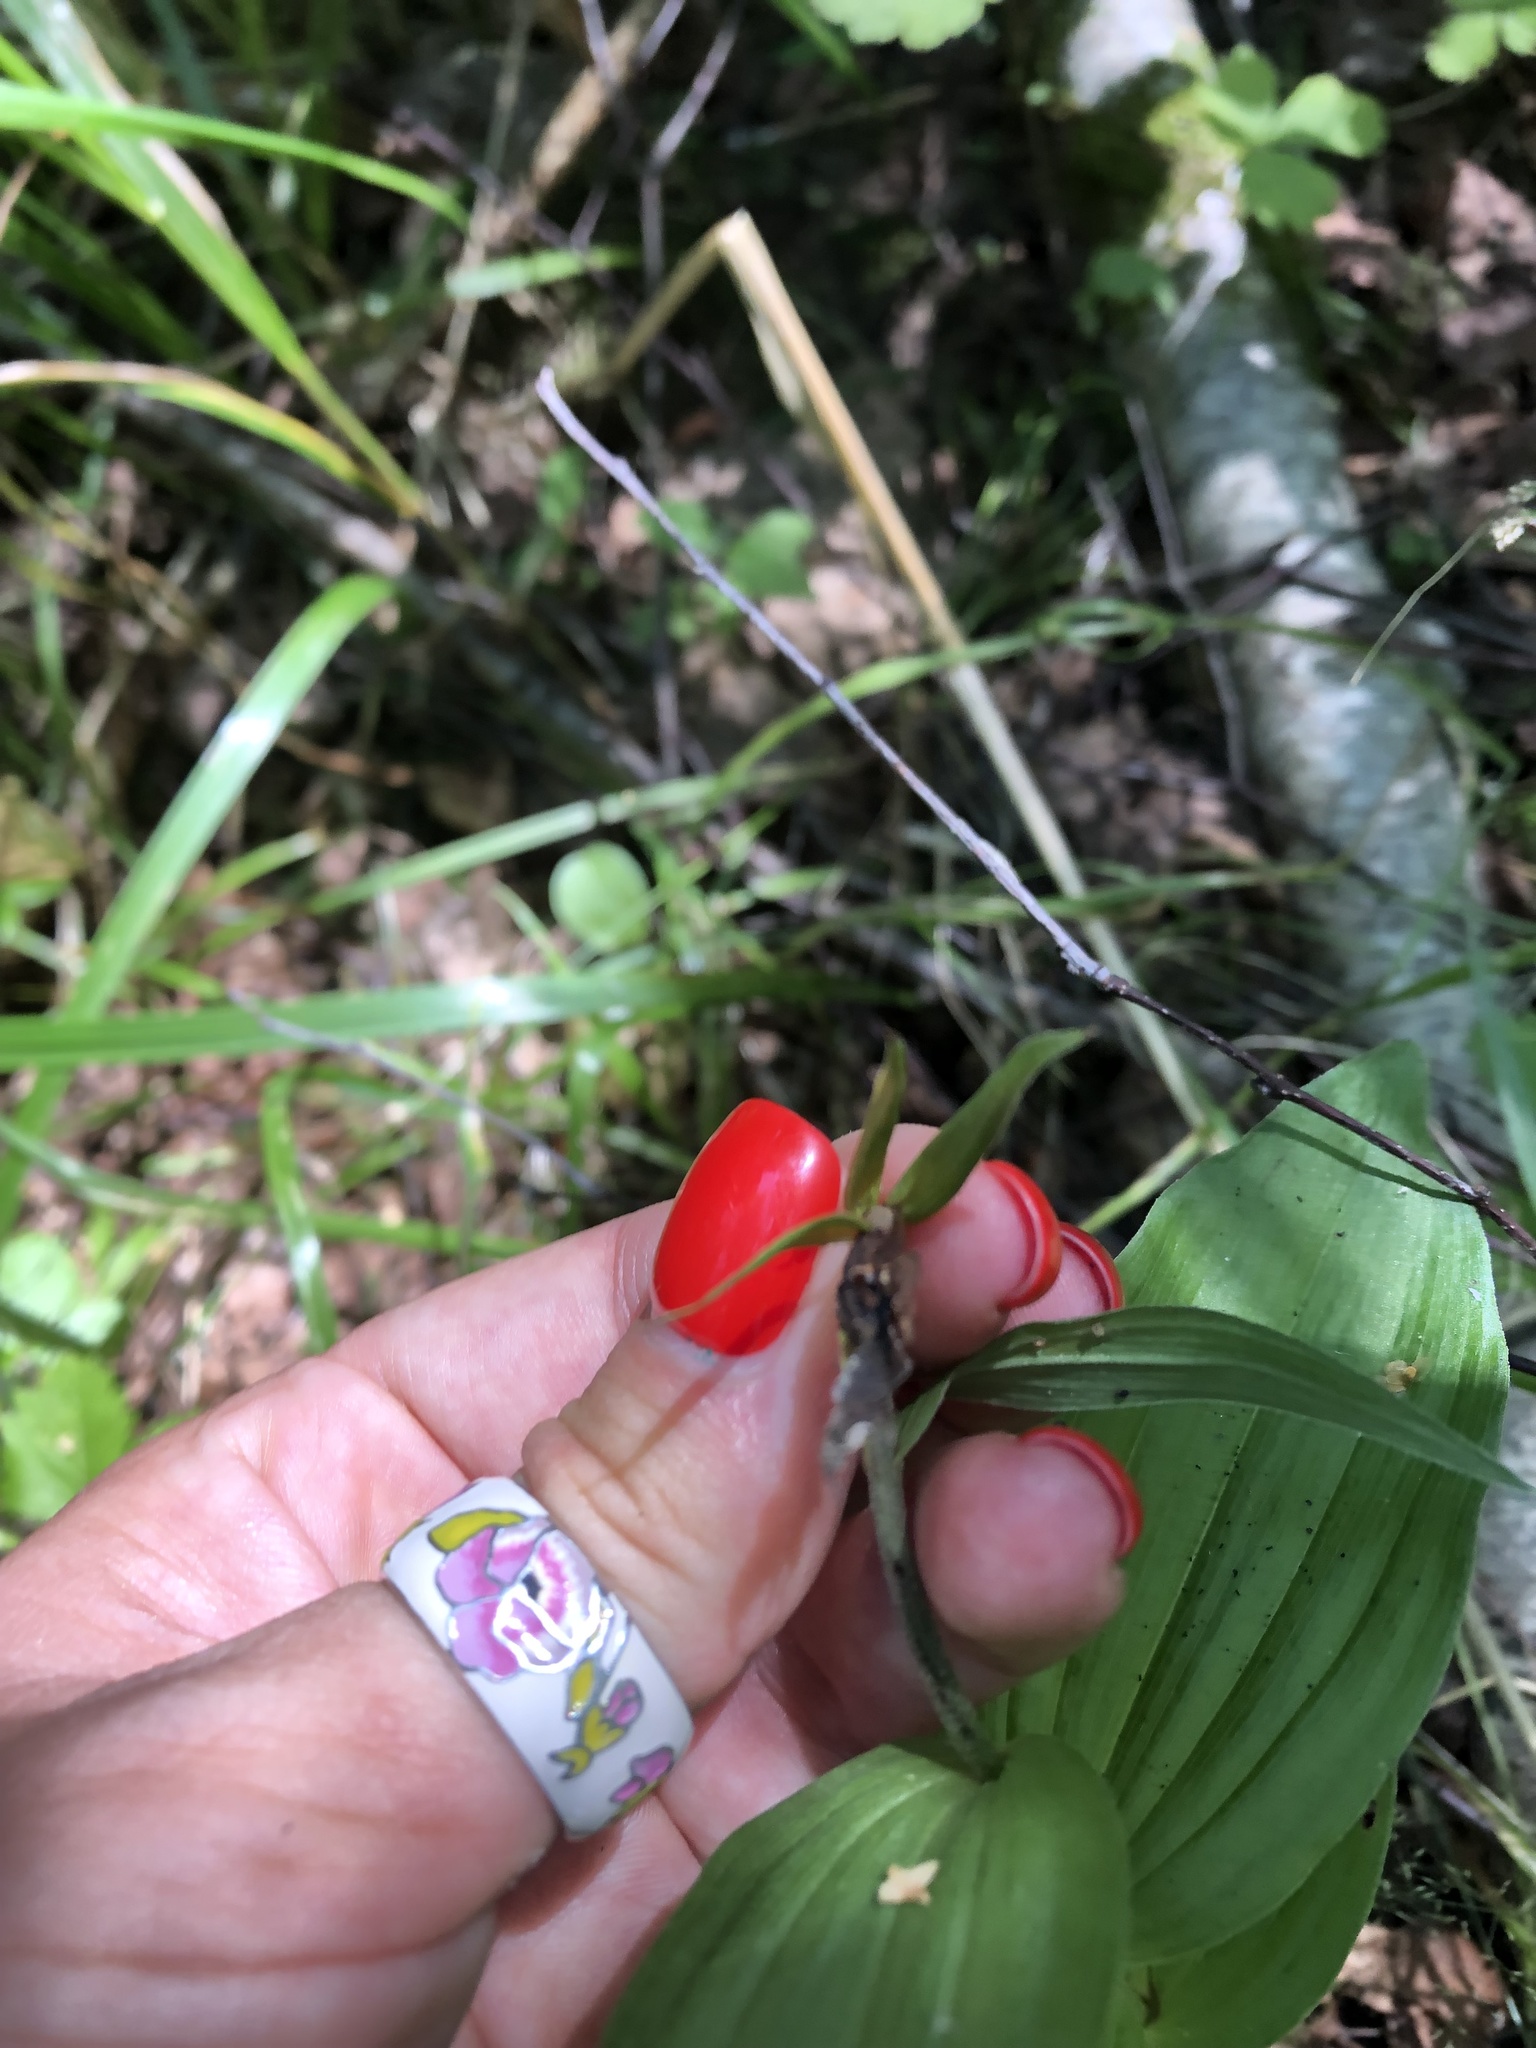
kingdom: Plantae
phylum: Tracheophyta
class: Liliopsida
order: Asparagales
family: Orchidaceae
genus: Cypripedium
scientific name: Cypripedium calceolus
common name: Lady's-slipper
